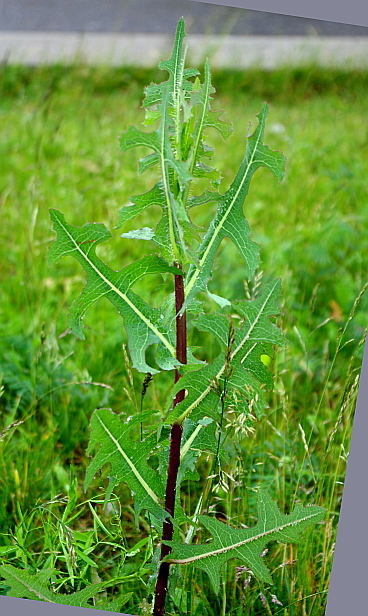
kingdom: Plantae
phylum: Tracheophyta
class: Magnoliopsida
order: Asterales
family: Asteraceae
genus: Lactuca
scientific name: Lactuca serriola
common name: Prickly lettuce
